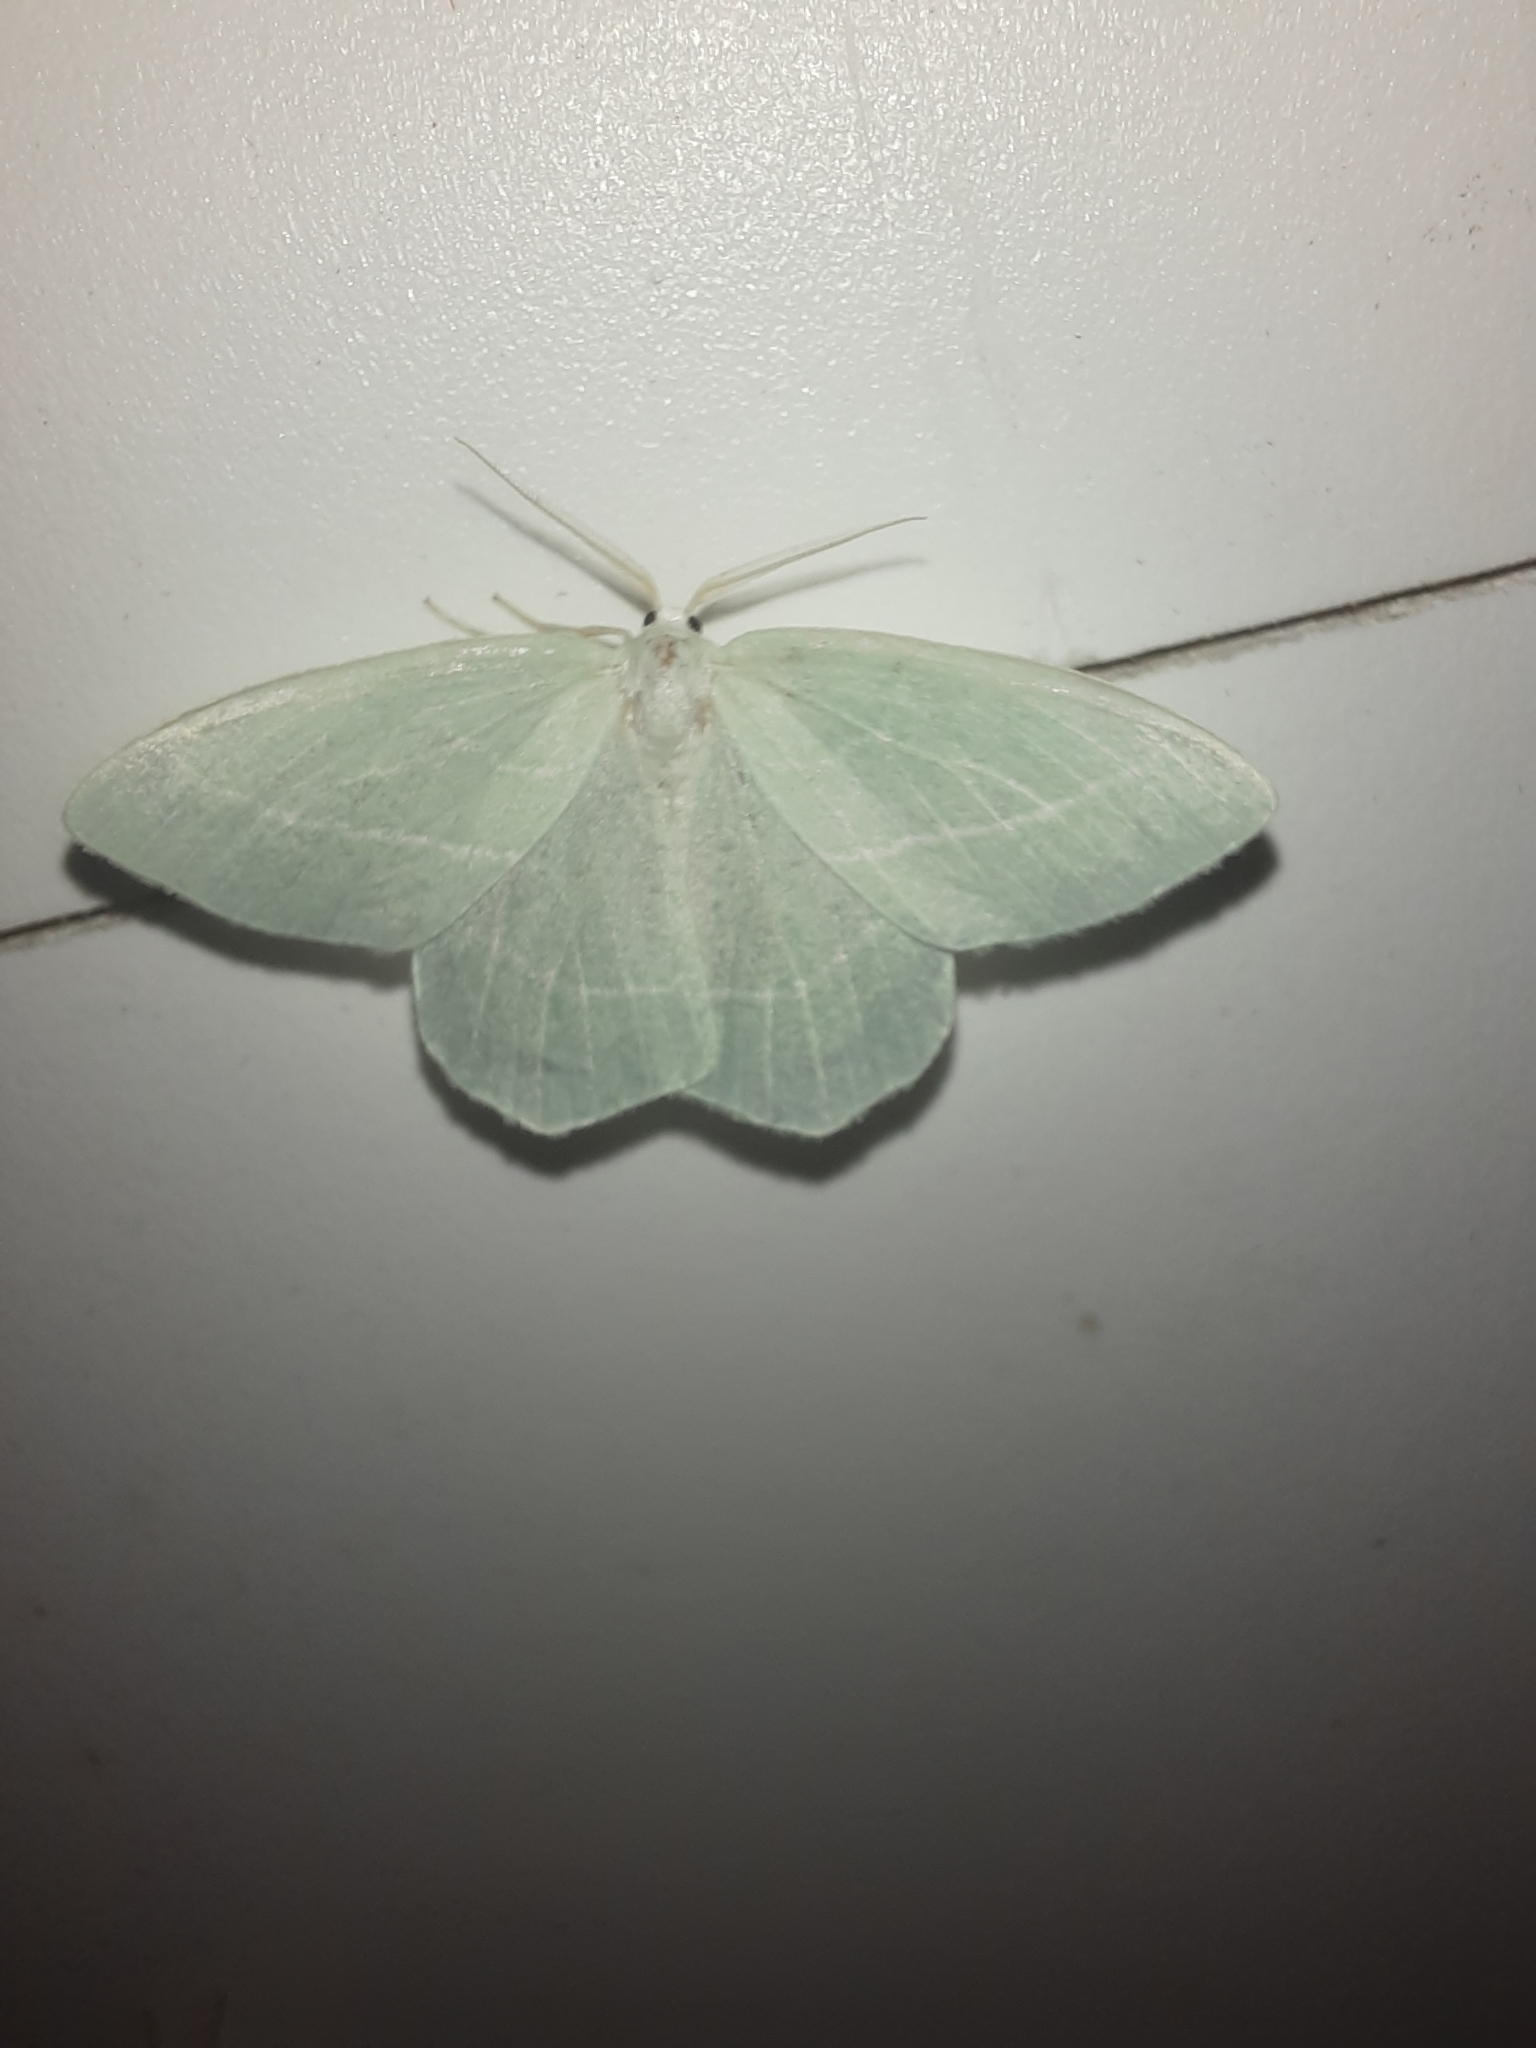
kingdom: Animalia
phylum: Arthropoda
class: Insecta
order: Lepidoptera
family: Geometridae
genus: Hemistola
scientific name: Hemistola chrysoprasaria
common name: Small emerald
